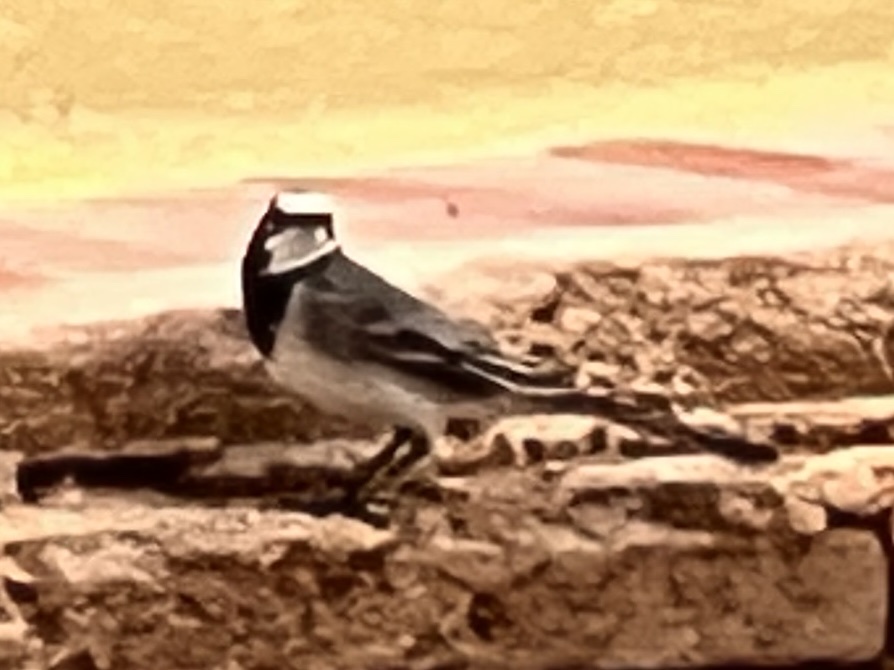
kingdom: Animalia
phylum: Chordata
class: Aves
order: Passeriformes
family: Motacillidae
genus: Motacilla
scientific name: Motacilla alba
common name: White wagtail
